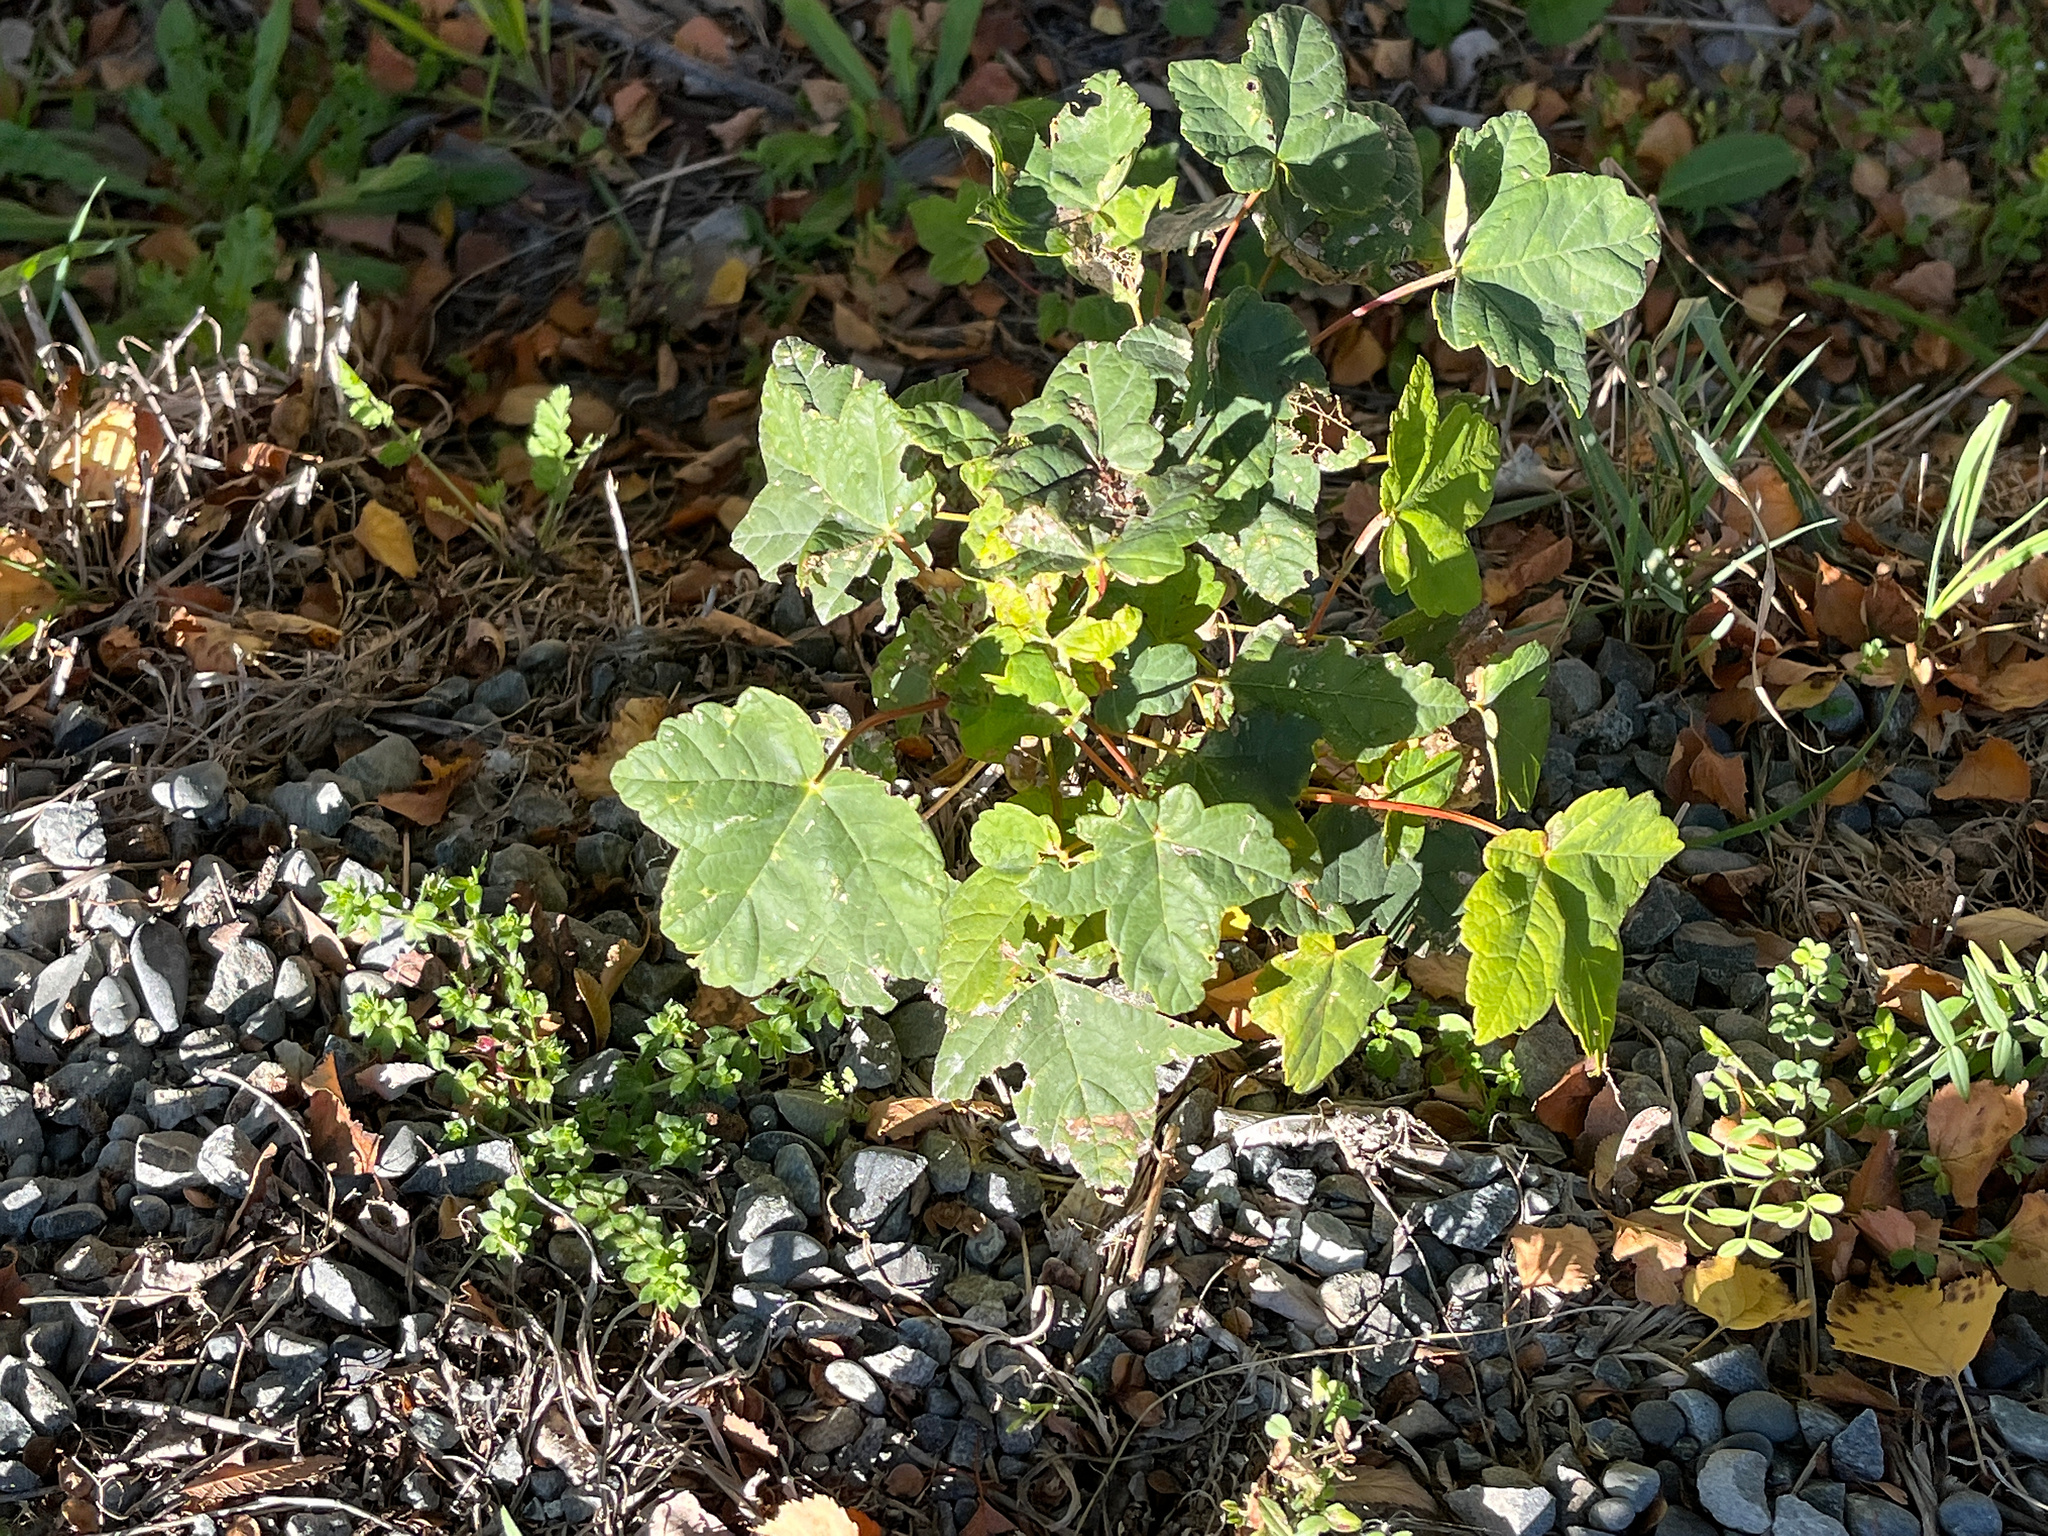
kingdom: Plantae
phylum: Tracheophyta
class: Magnoliopsida
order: Sapindales
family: Sapindaceae
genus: Acer
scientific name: Acer pseudoplatanus
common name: Sycamore
